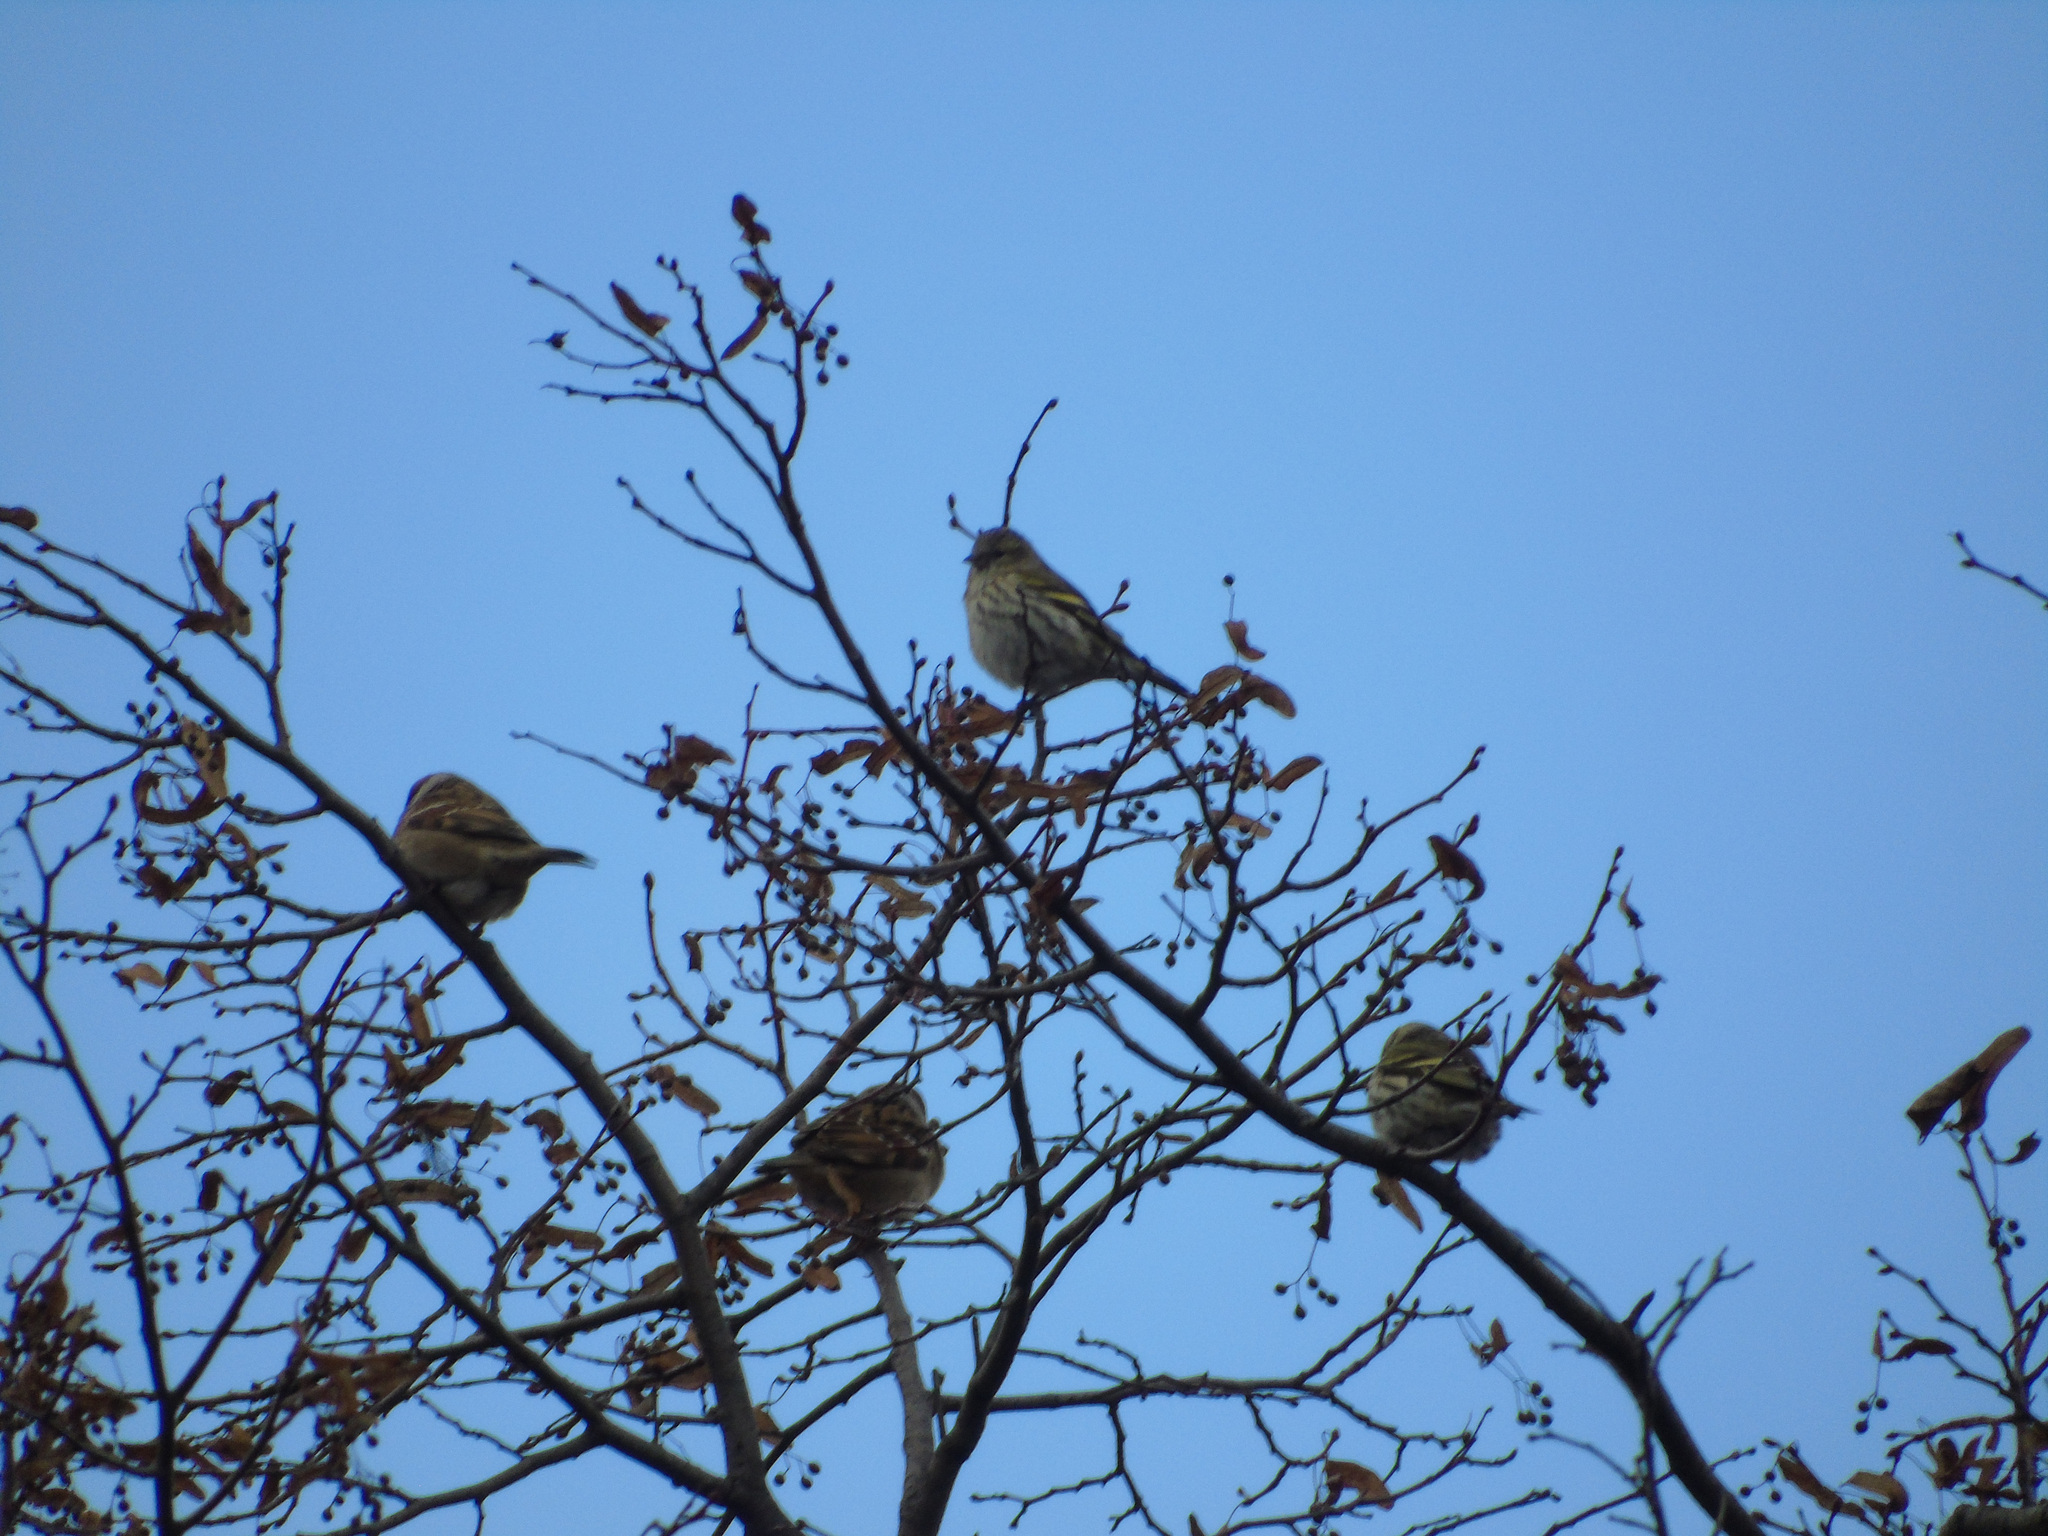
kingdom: Animalia
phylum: Chordata
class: Aves
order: Passeriformes
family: Fringillidae
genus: Spinus
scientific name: Spinus spinus
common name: Eurasian siskin
